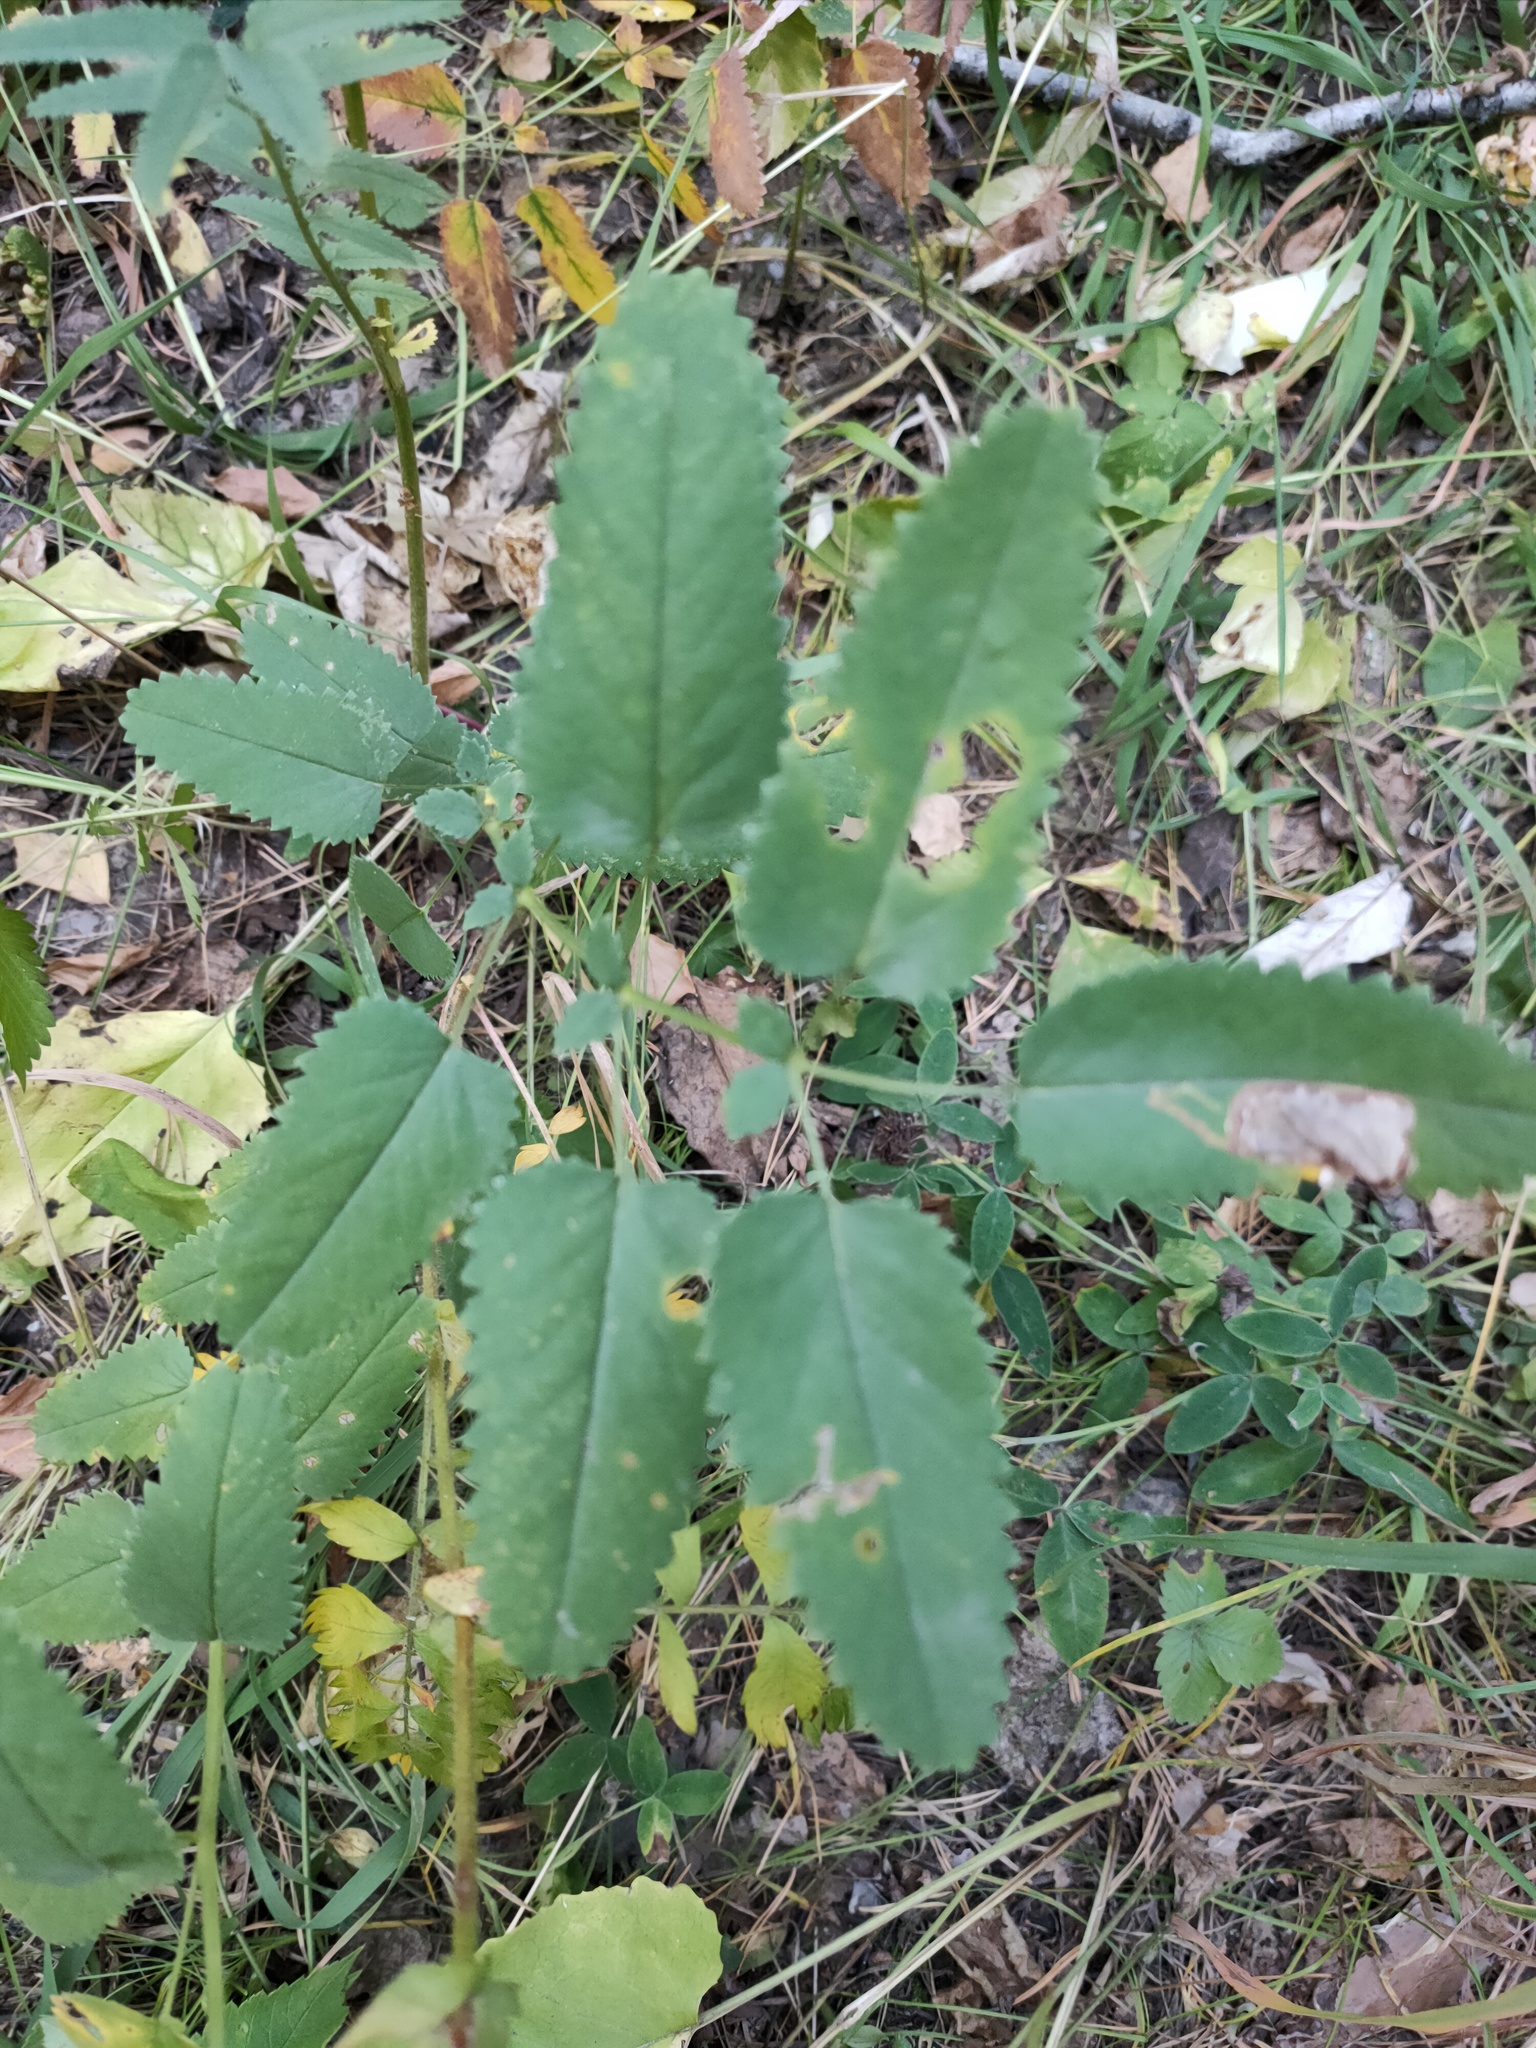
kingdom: Plantae
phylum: Tracheophyta
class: Magnoliopsida
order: Rosales
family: Rosaceae
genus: Sanguisorba
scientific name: Sanguisorba officinalis
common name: Great burnet
